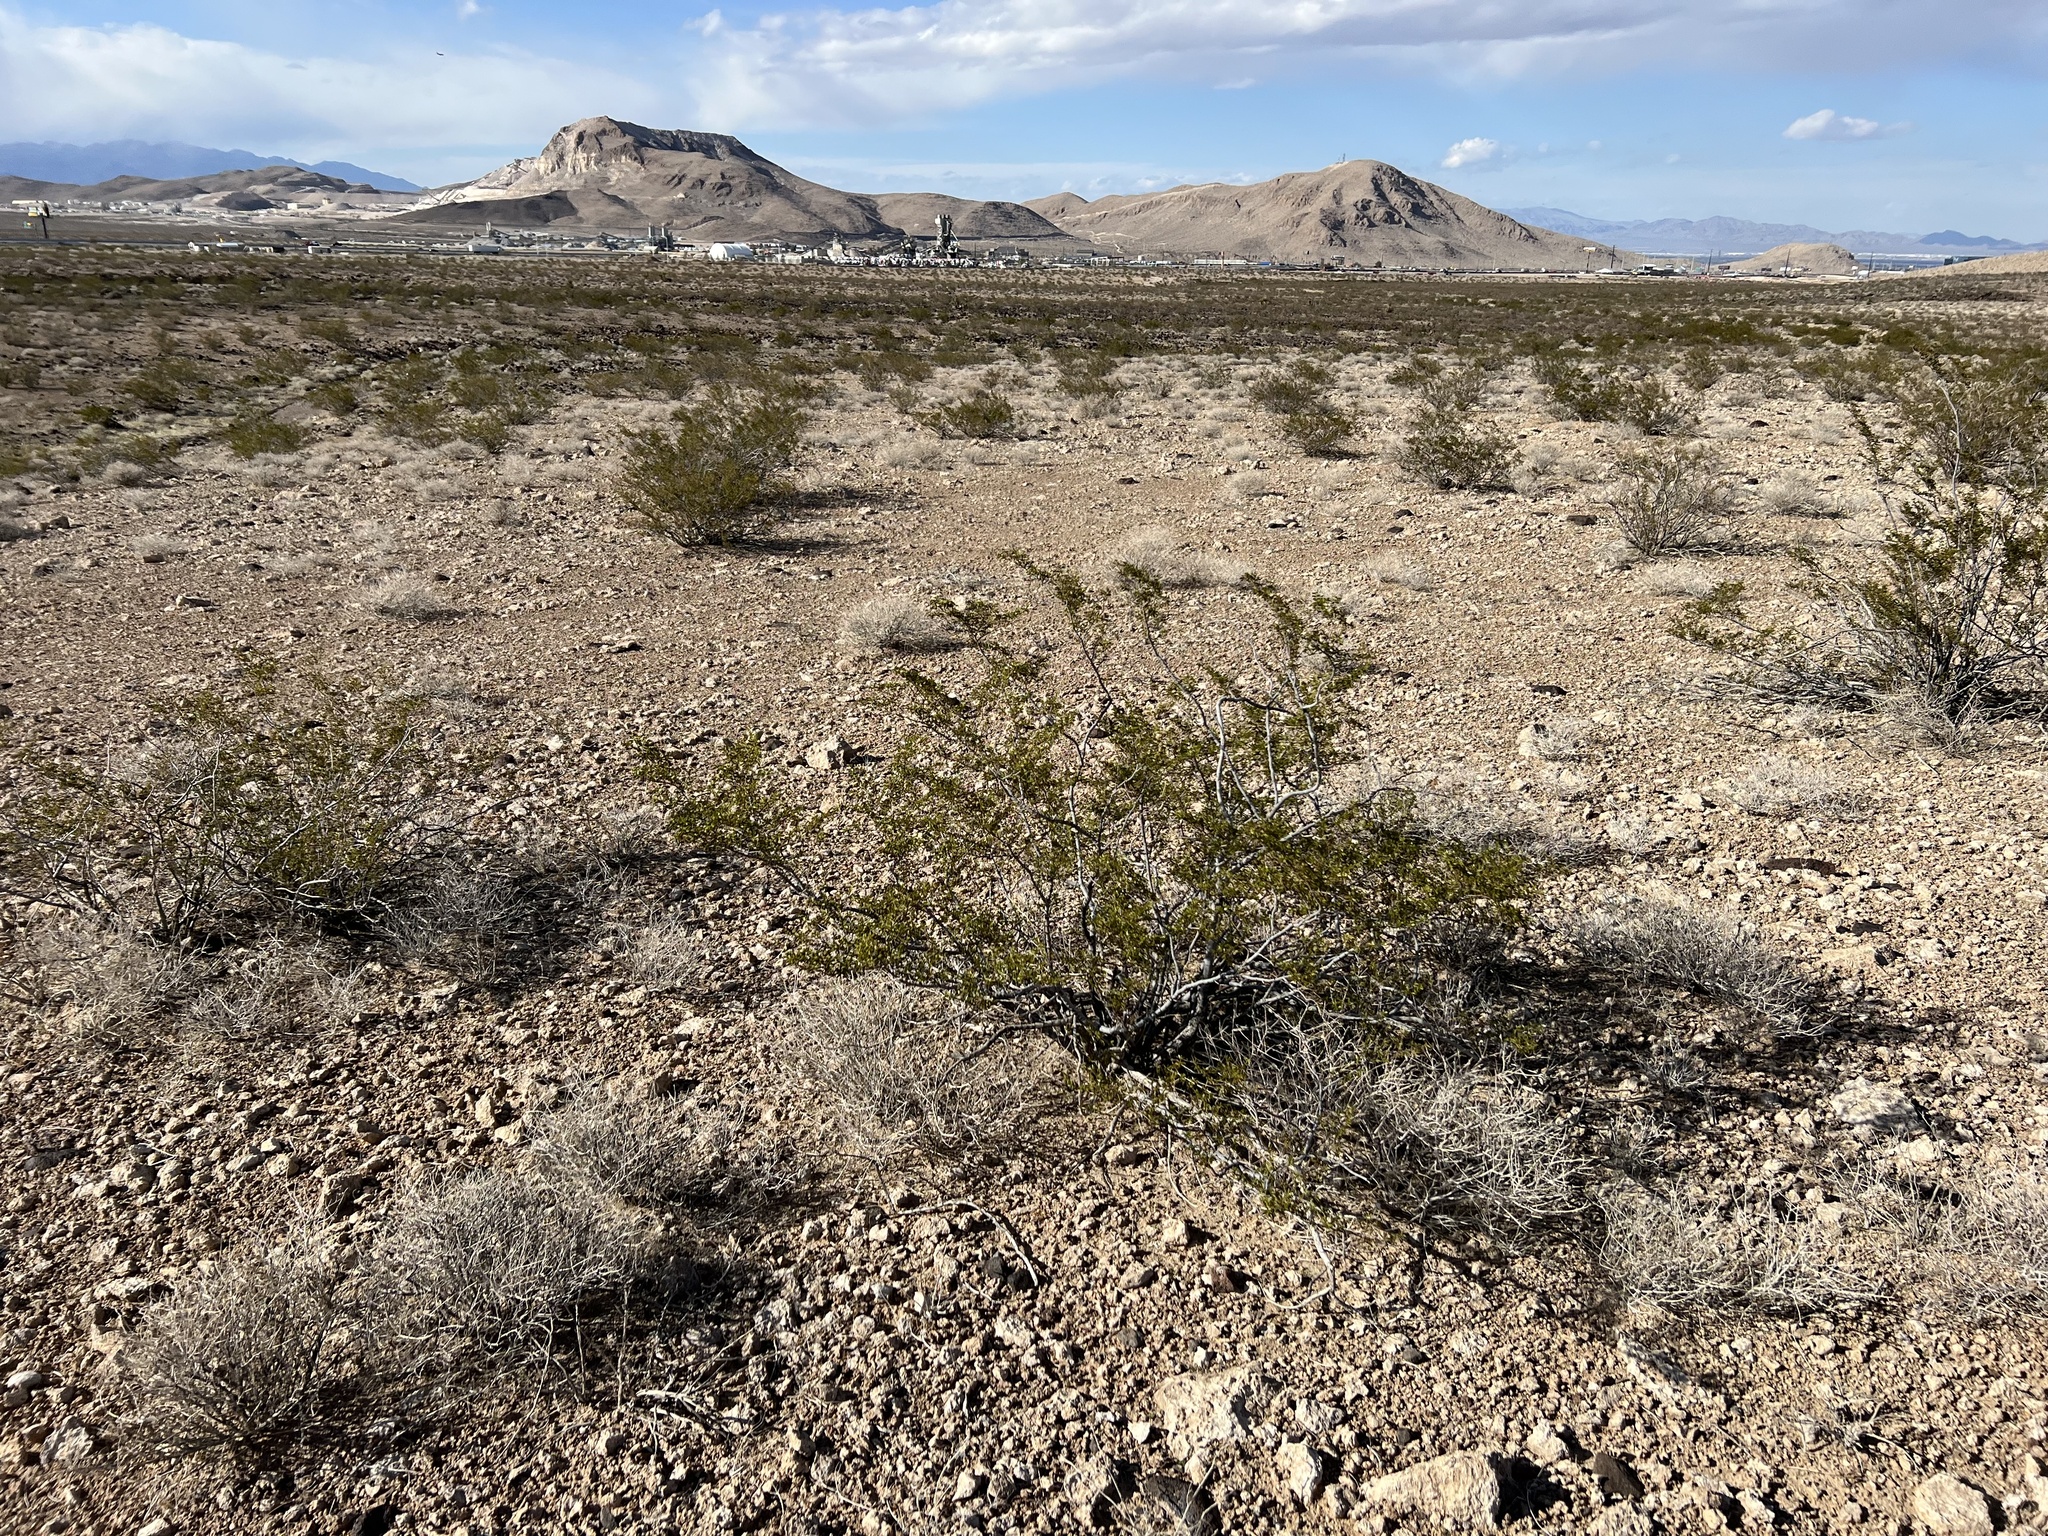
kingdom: Plantae
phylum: Tracheophyta
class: Magnoliopsida
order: Zygophyllales
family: Zygophyllaceae
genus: Larrea
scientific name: Larrea tridentata
